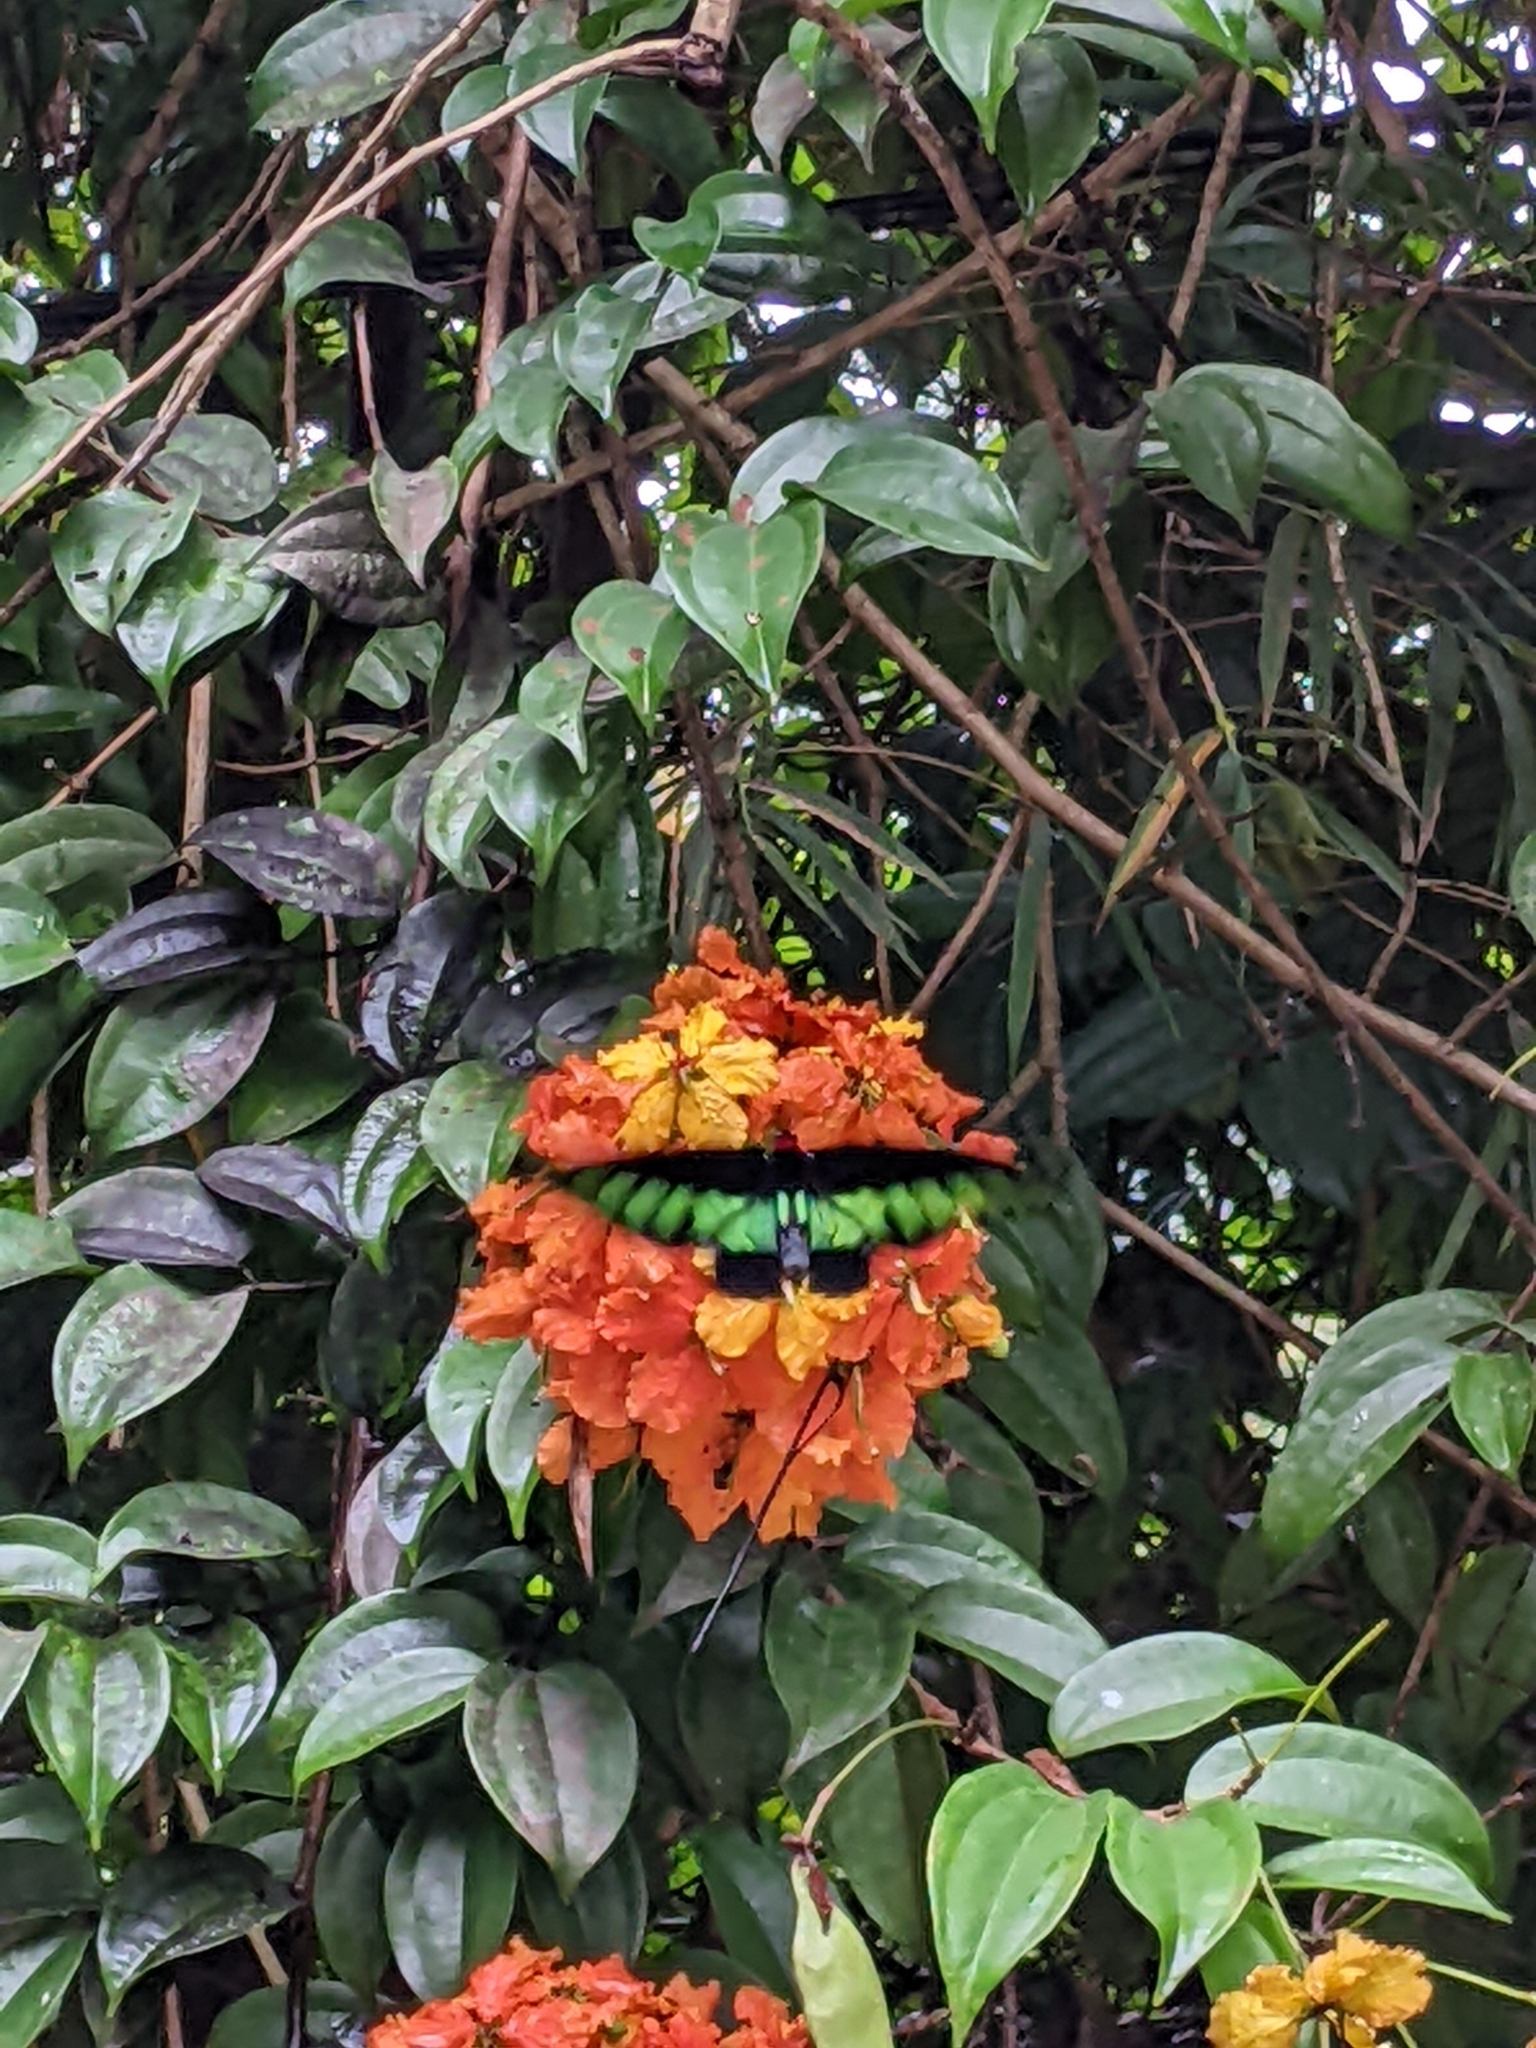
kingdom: Animalia
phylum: Arthropoda
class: Insecta
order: Lepidoptera
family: Papilionidae
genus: Trogonoptera
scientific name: Trogonoptera brookiana
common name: Raja brooke's birdwing
